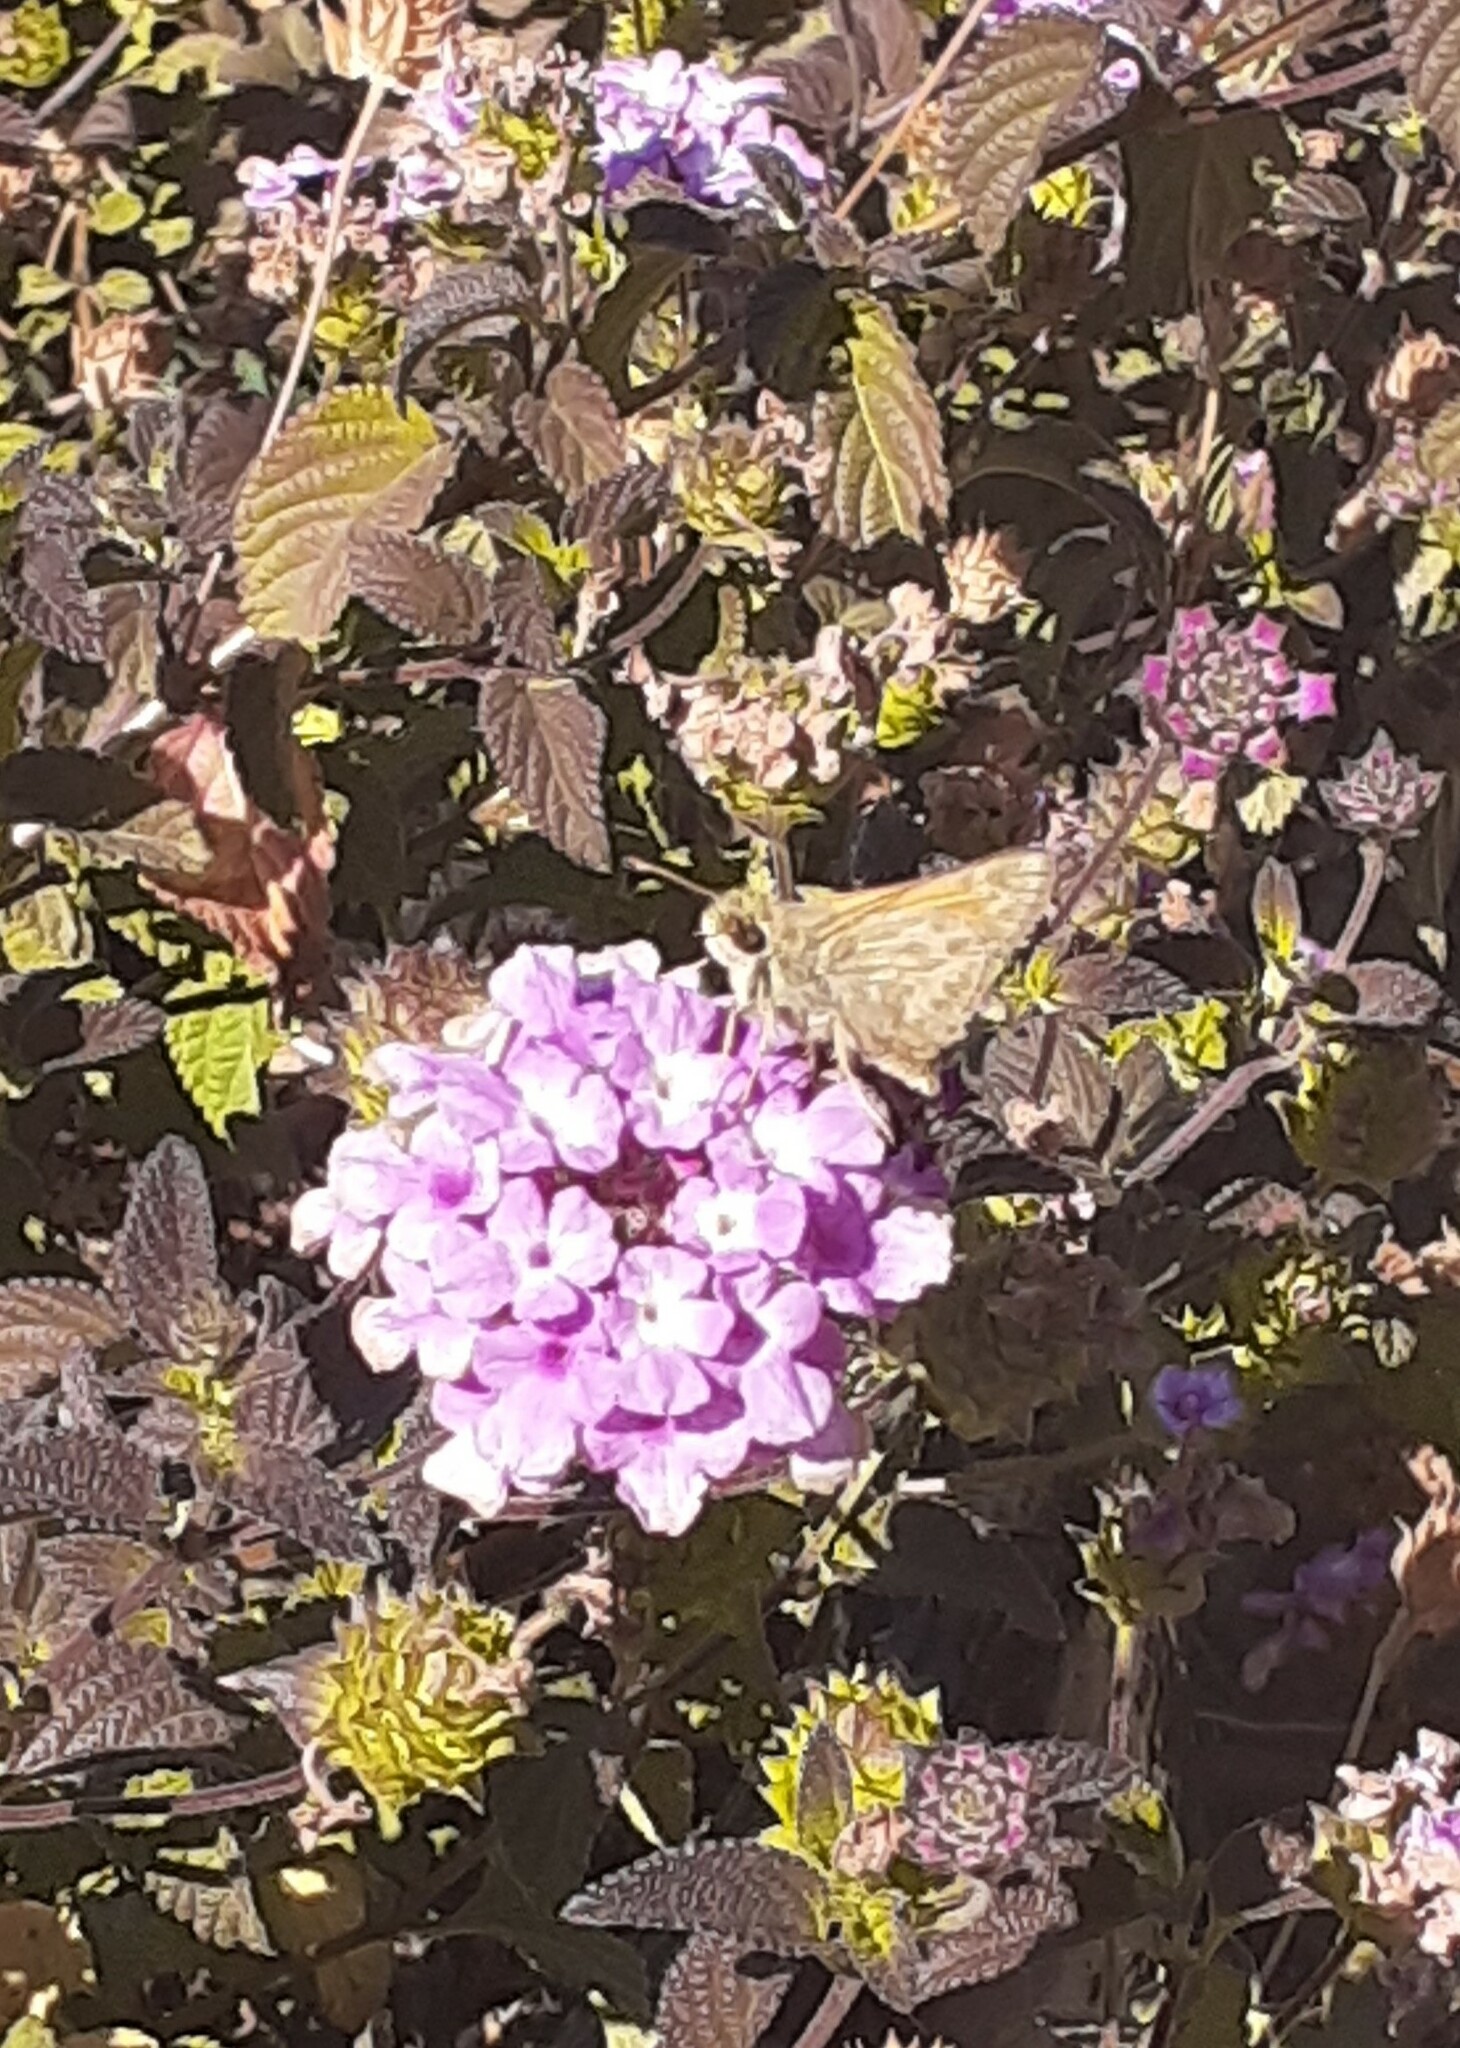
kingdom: Animalia
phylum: Arthropoda
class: Insecta
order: Lepidoptera
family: Hesperiidae
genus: Atalopedes
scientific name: Atalopedes campestris
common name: Sachem
